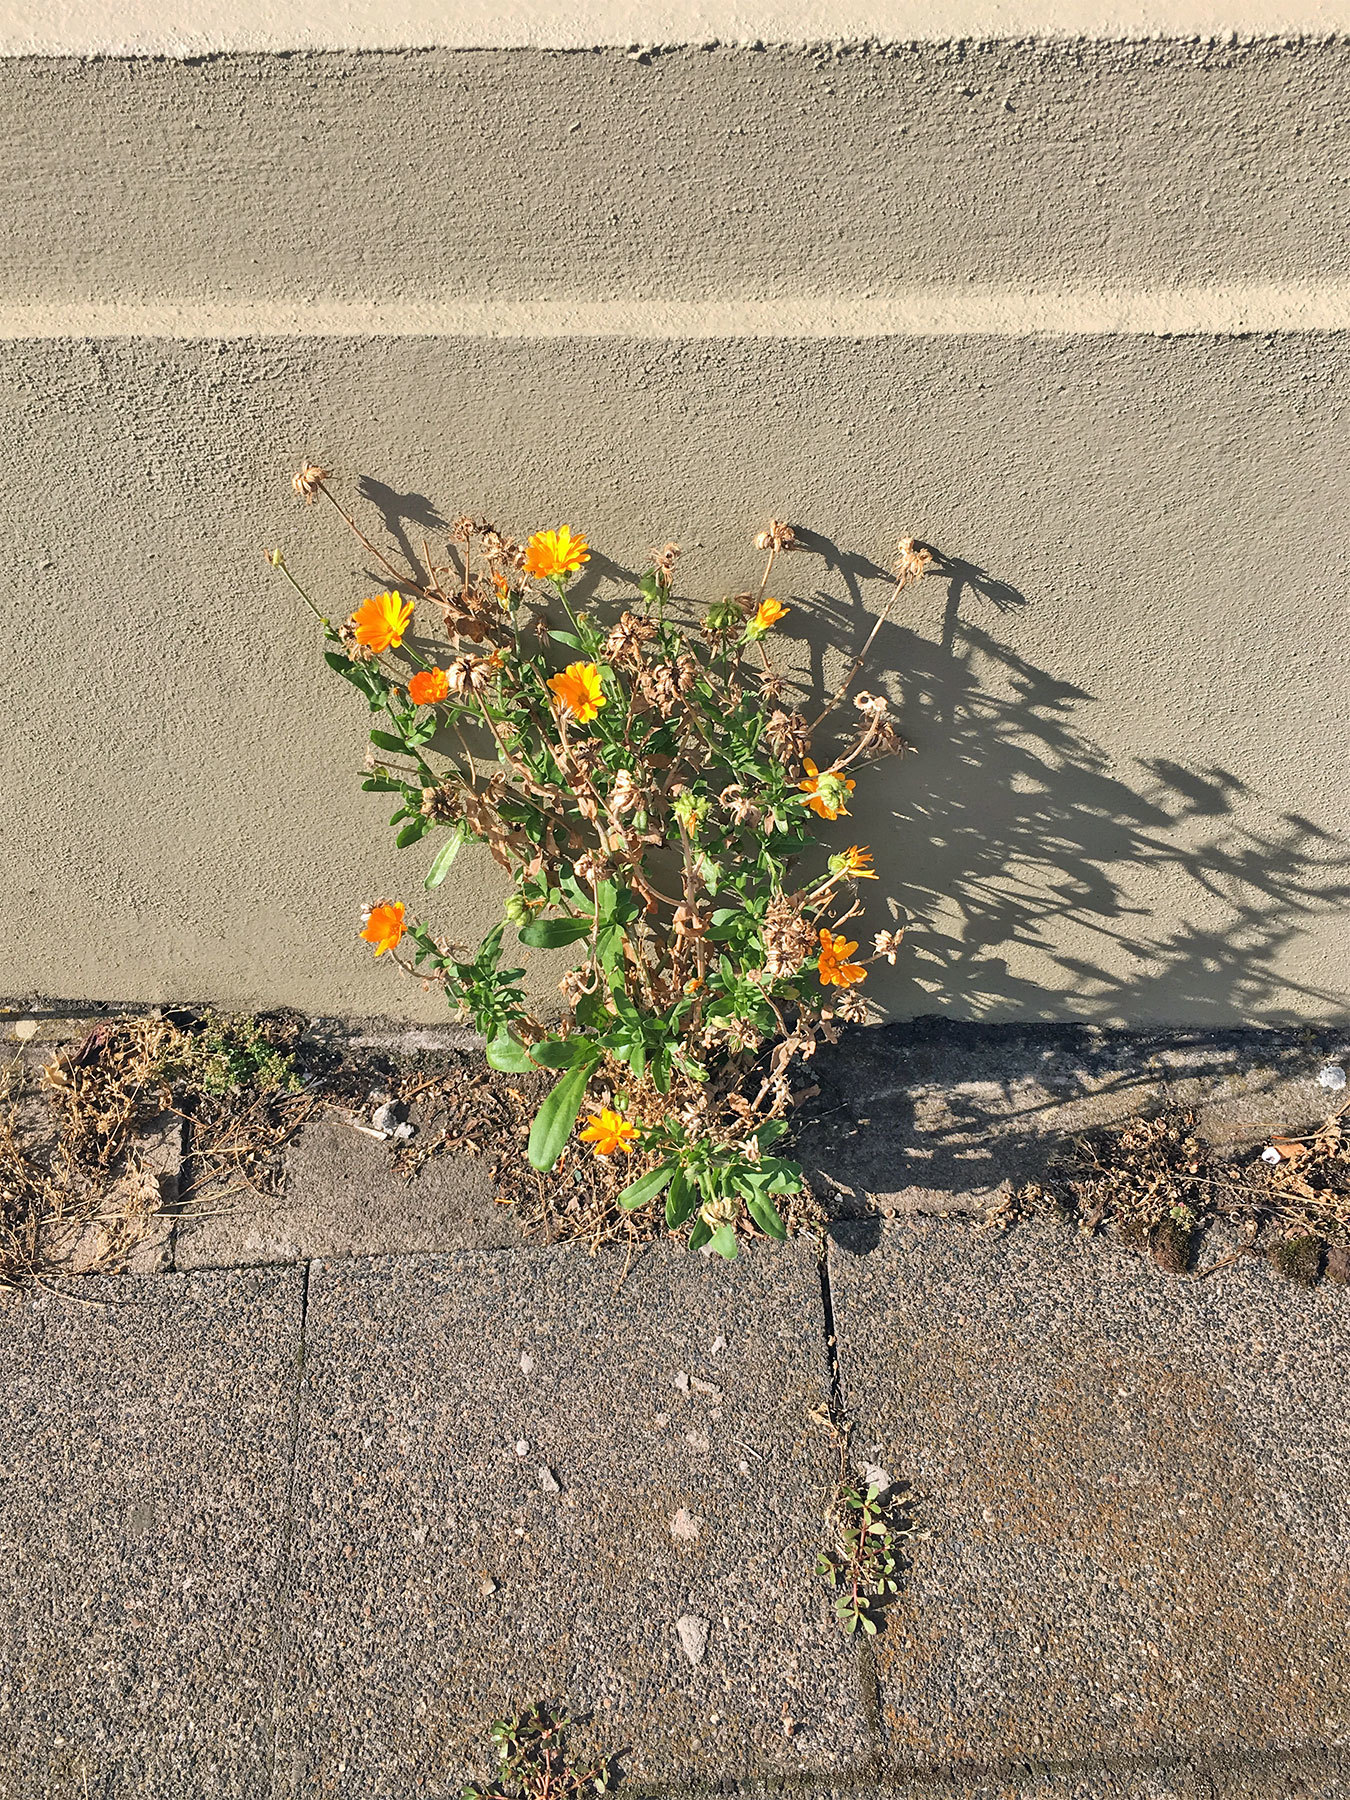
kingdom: Plantae
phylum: Tracheophyta
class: Magnoliopsida
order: Asterales
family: Asteraceae
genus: Calendula
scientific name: Calendula officinalis
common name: Pot marigold
